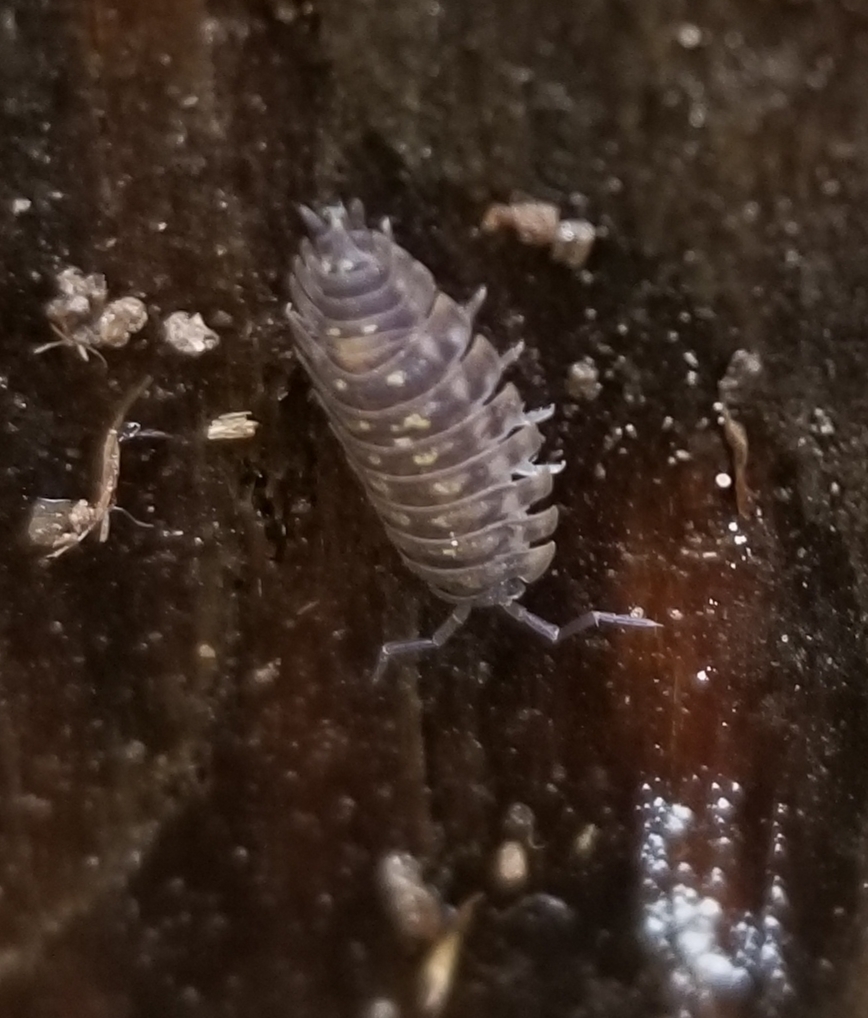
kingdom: Animalia
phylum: Arthropoda
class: Malacostraca
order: Isopoda
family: Oniscidae
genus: Oniscus
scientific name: Oniscus asellus
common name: Common shiny woodlouse
